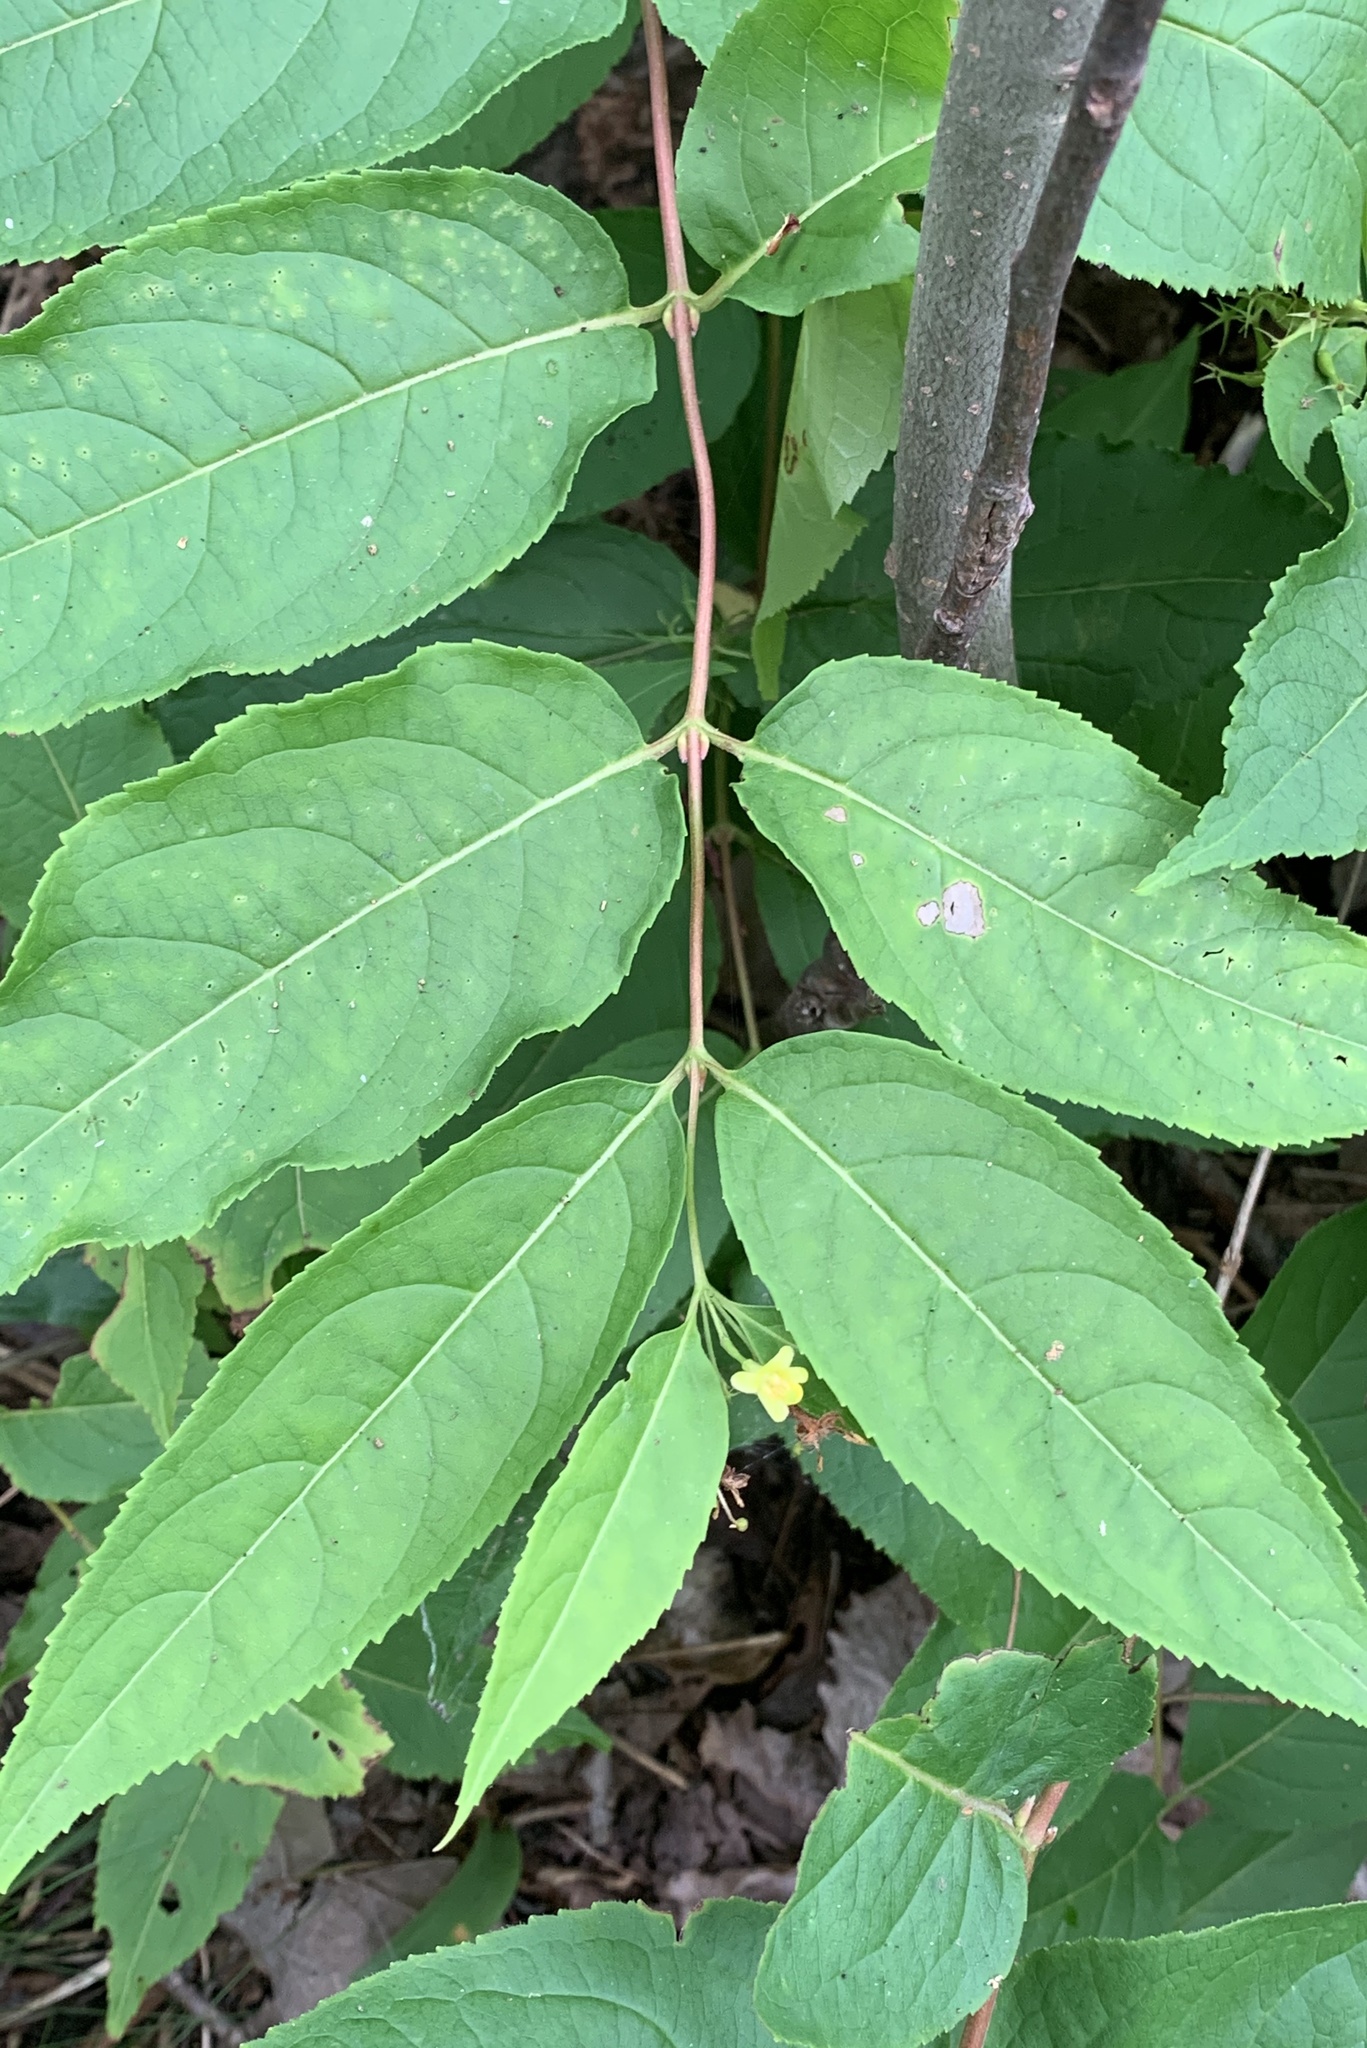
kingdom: Plantae
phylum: Tracheophyta
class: Magnoliopsida
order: Dipsacales
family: Caprifoliaceae
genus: Diervilla
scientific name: Diervilla lonicera
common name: Bush-honeysuckle
